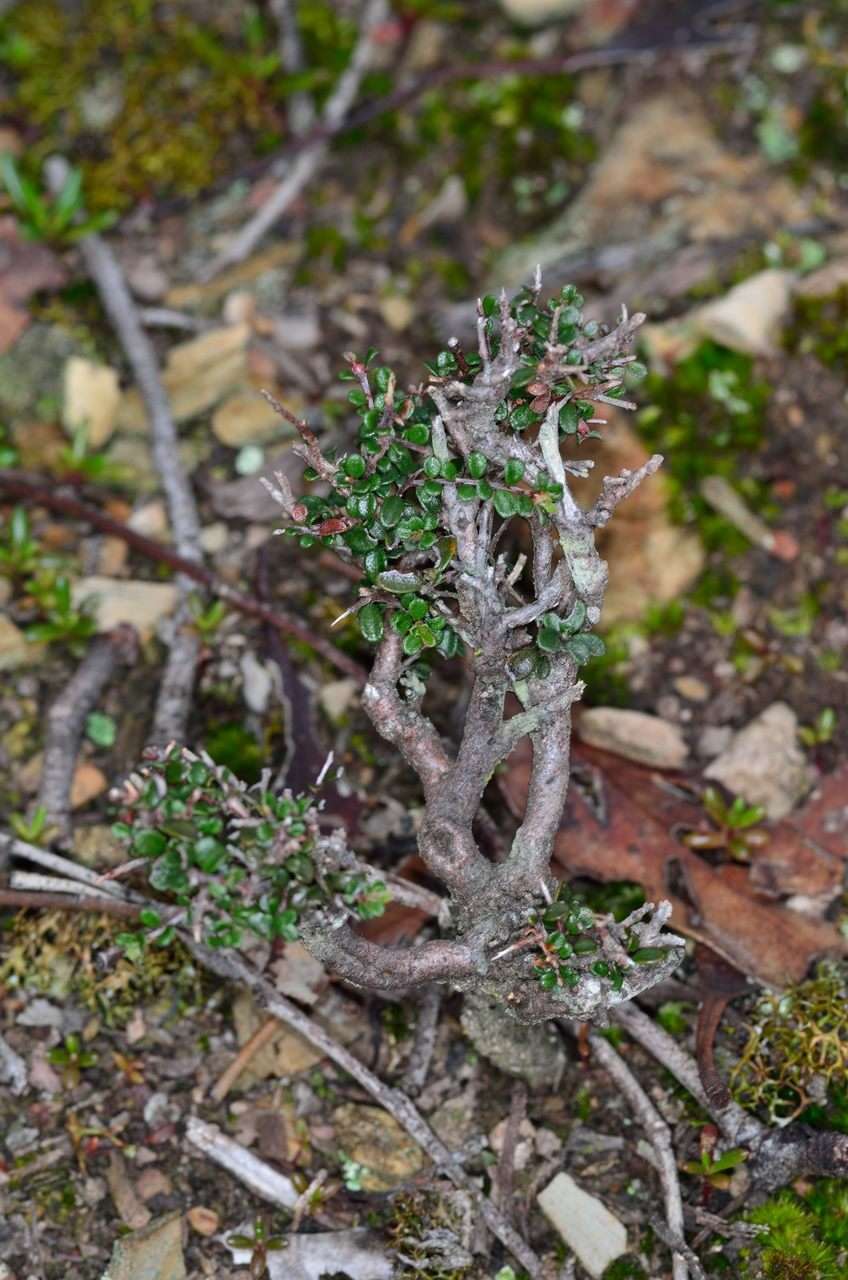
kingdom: Plantae
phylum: Tracheophyta
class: Magnoliopsida
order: Fabales
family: Fabaceae
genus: Pultenaea
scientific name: Pultenaea gunnii
